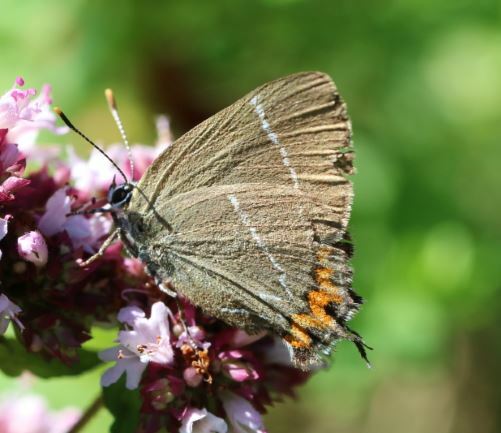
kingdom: Animalia
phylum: Arthropoda
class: Insecta
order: Lepidoptera
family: Lycaenidae
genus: Satyrium
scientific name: Satyrium w-album
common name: White-letter hairstreak
